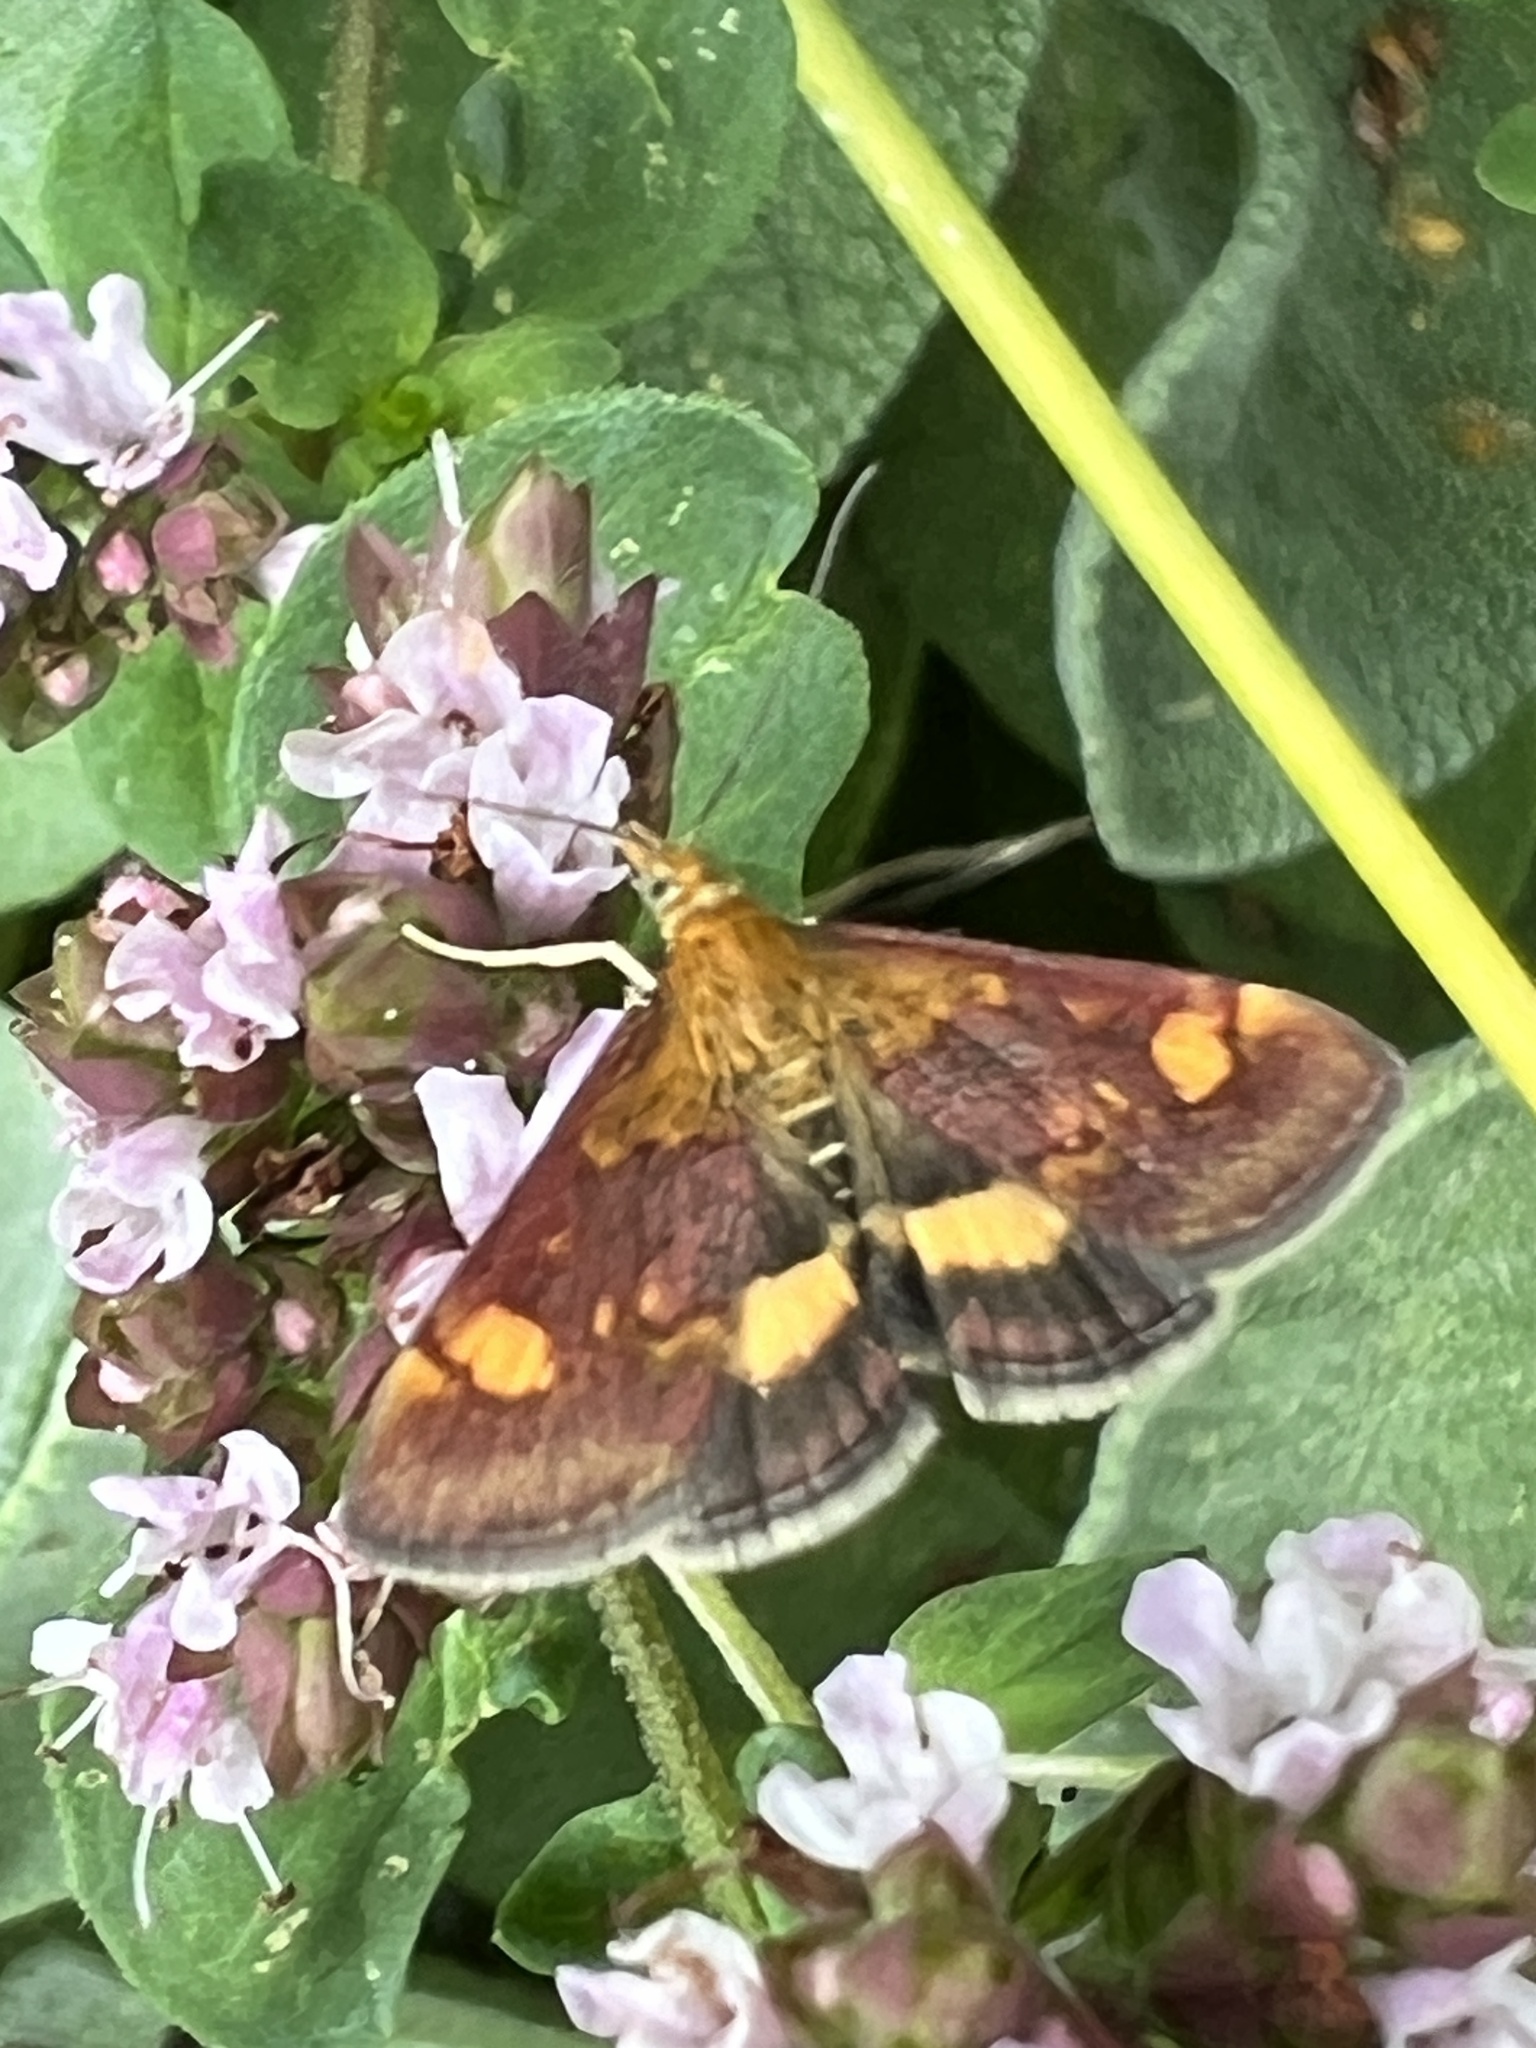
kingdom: Animalia
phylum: Arthropoda
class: Insecta
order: Lepidoptera
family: Crambidae
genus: Pyrausta
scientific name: Pyrausta aurata
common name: Small purple & gold
